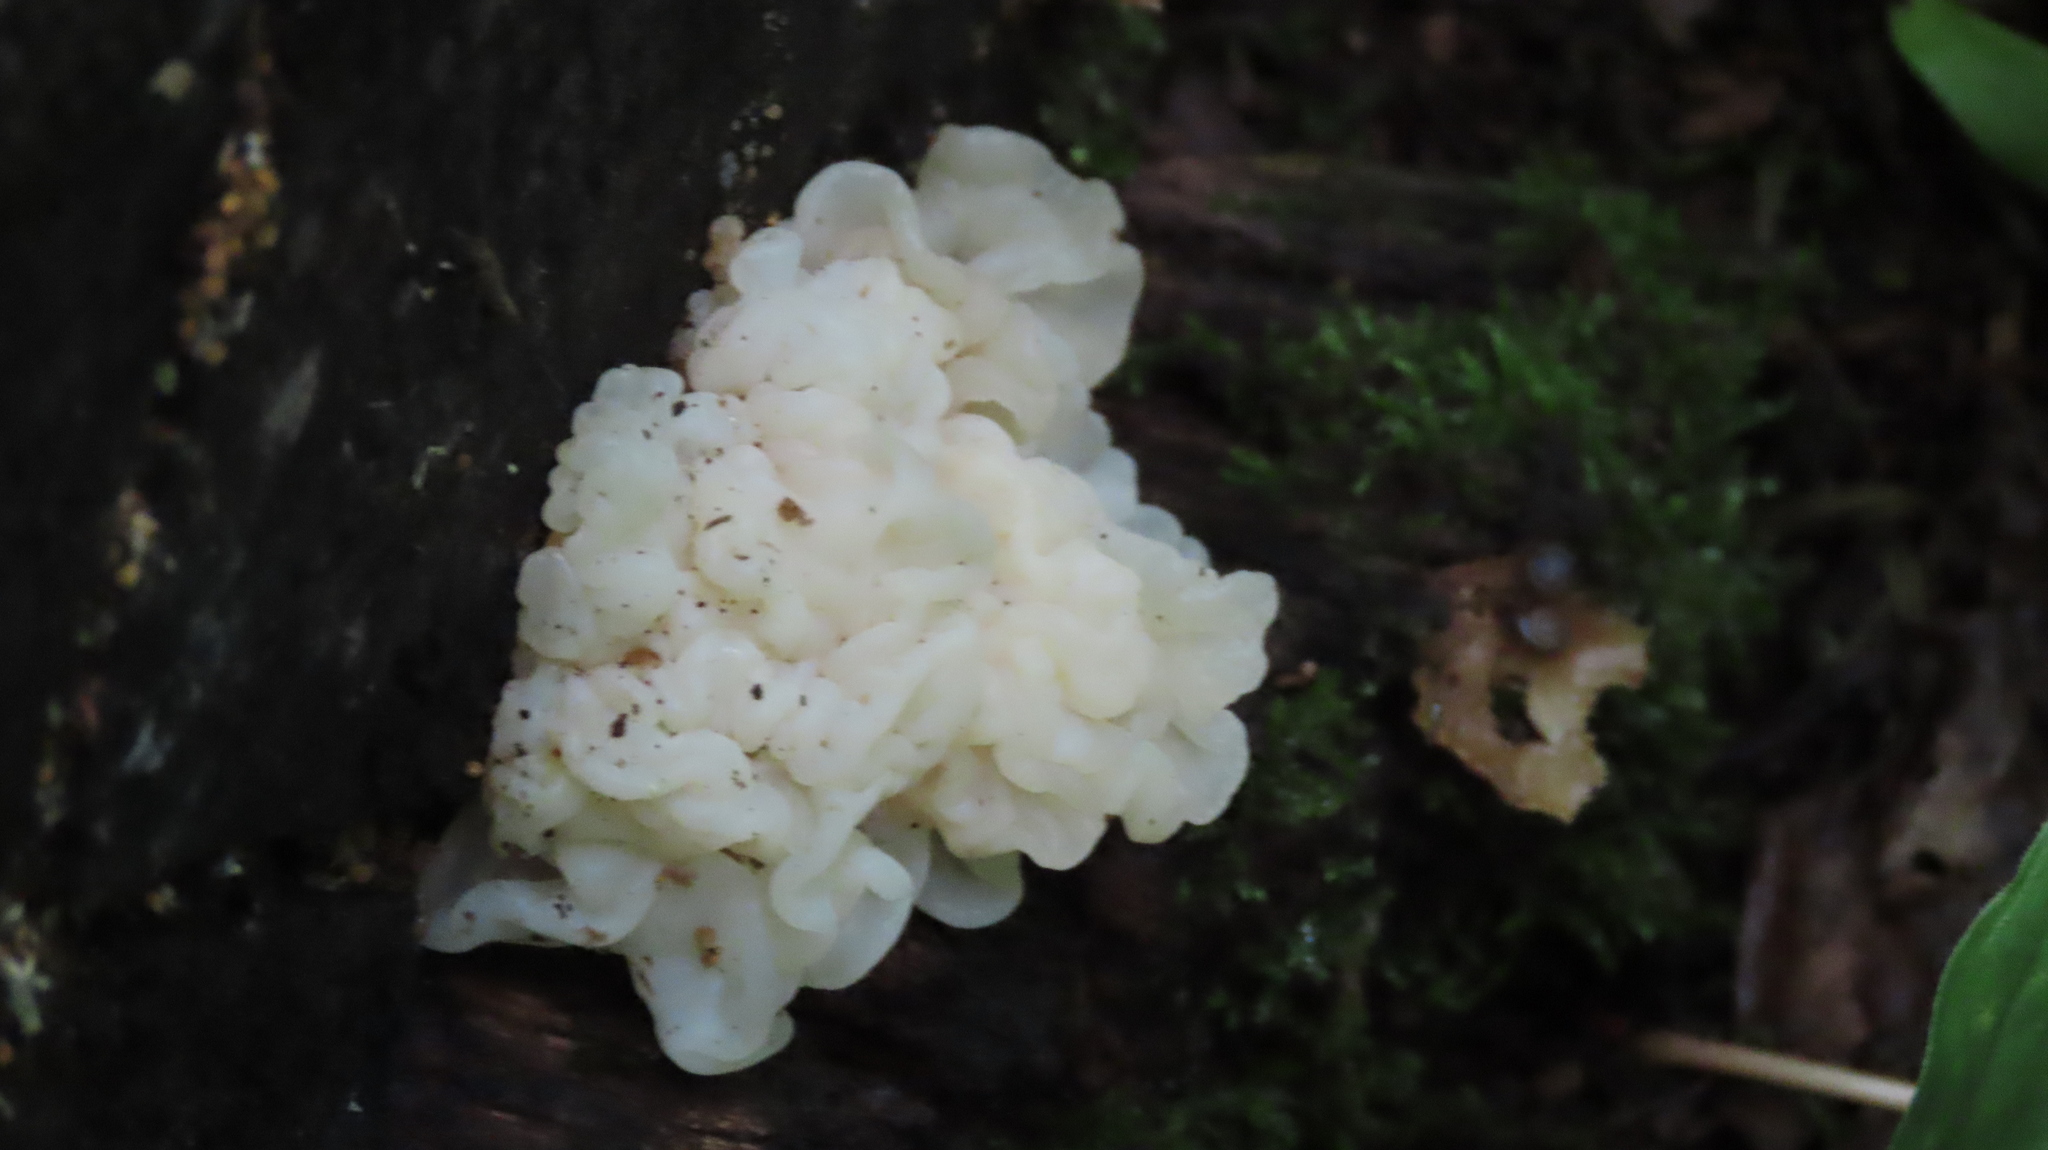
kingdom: Fungi
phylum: Basidiomycota
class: Agaricomycetes
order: Auriculariales
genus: Ductifera
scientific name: Ductifera pululahuana
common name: White jelly fungus
